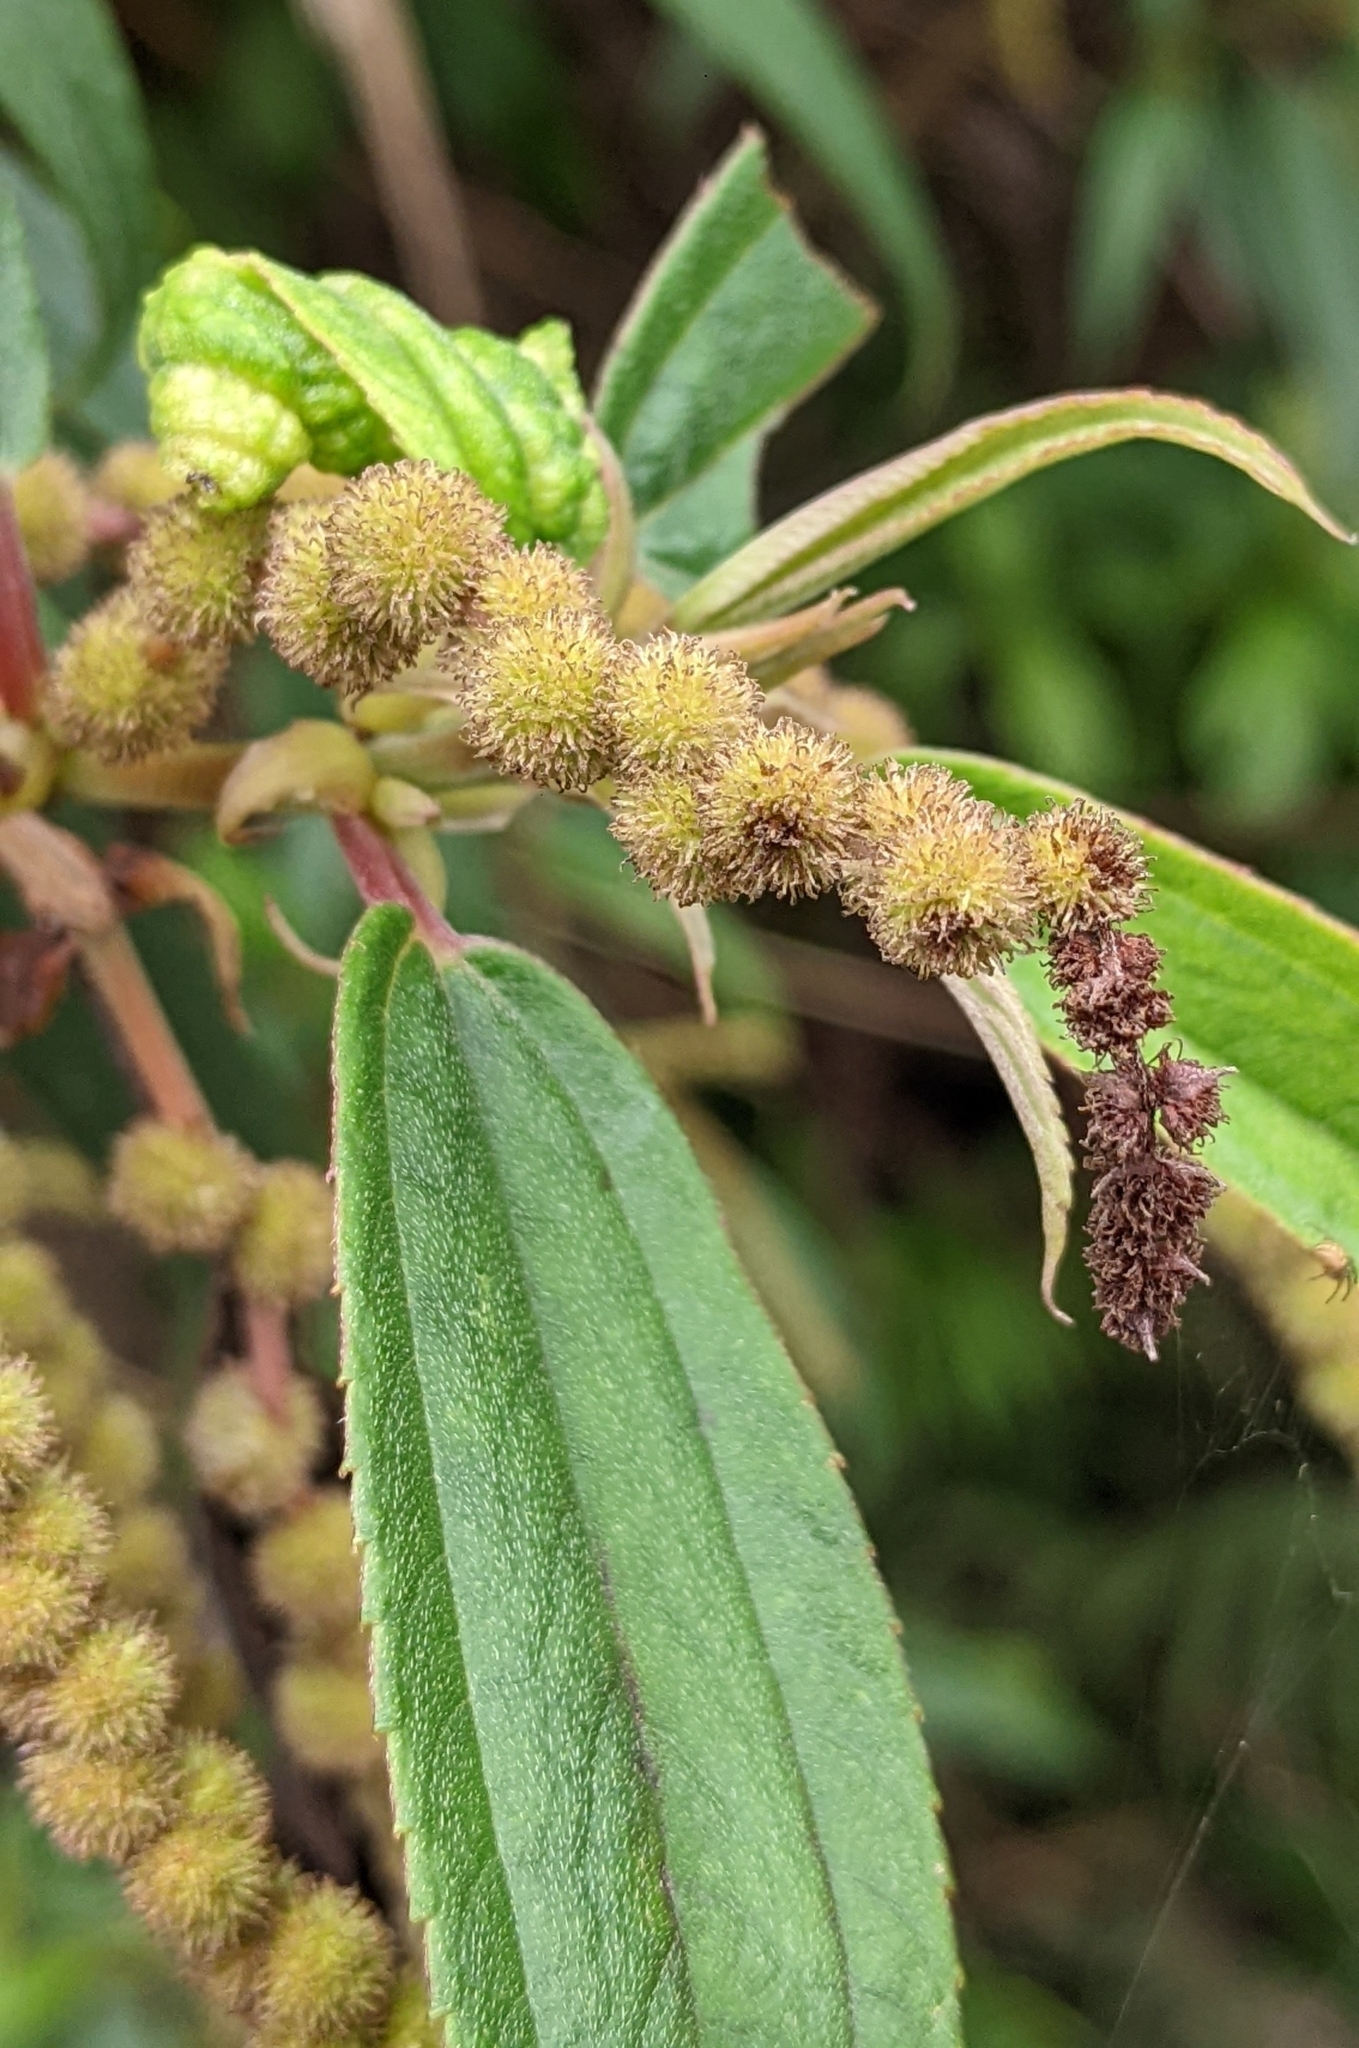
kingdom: Plantae
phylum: Tracheophyta
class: Magnoliopsida
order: Rosales
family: Urticaceae
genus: Boehmeria
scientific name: Boehmeria densiflora
